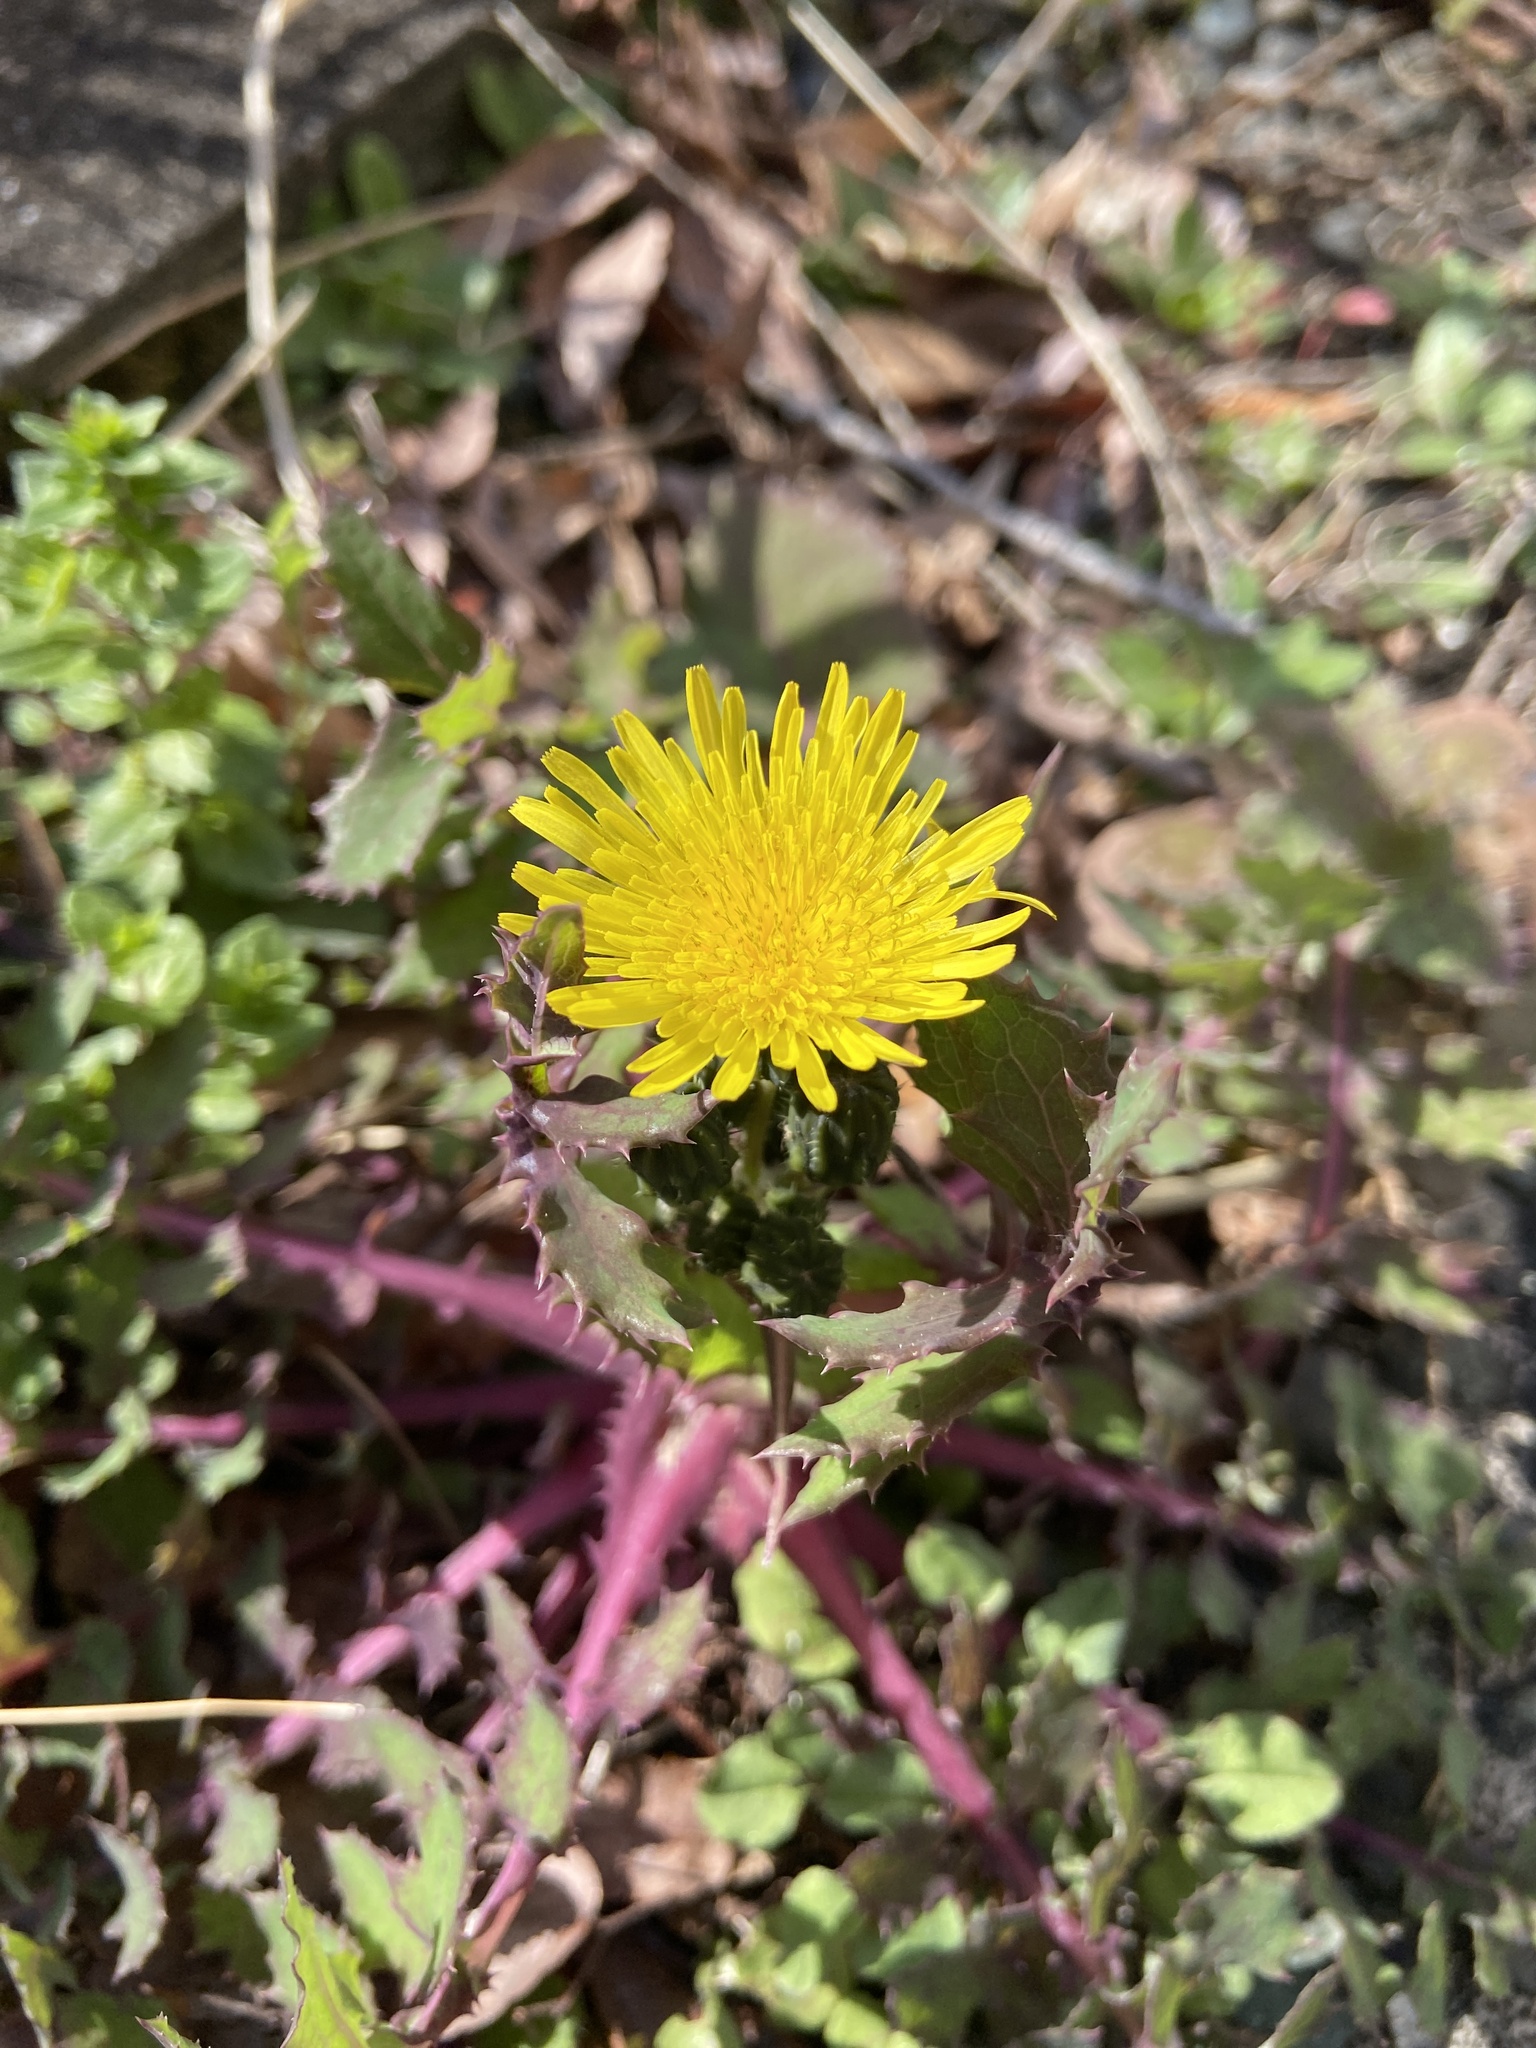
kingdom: Plantae
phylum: Tracheophyta
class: Magnoliopsida
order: Asterales
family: Asteraceae
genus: Sonchus
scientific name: Sonchus oleraceus
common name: Common sowthistle
